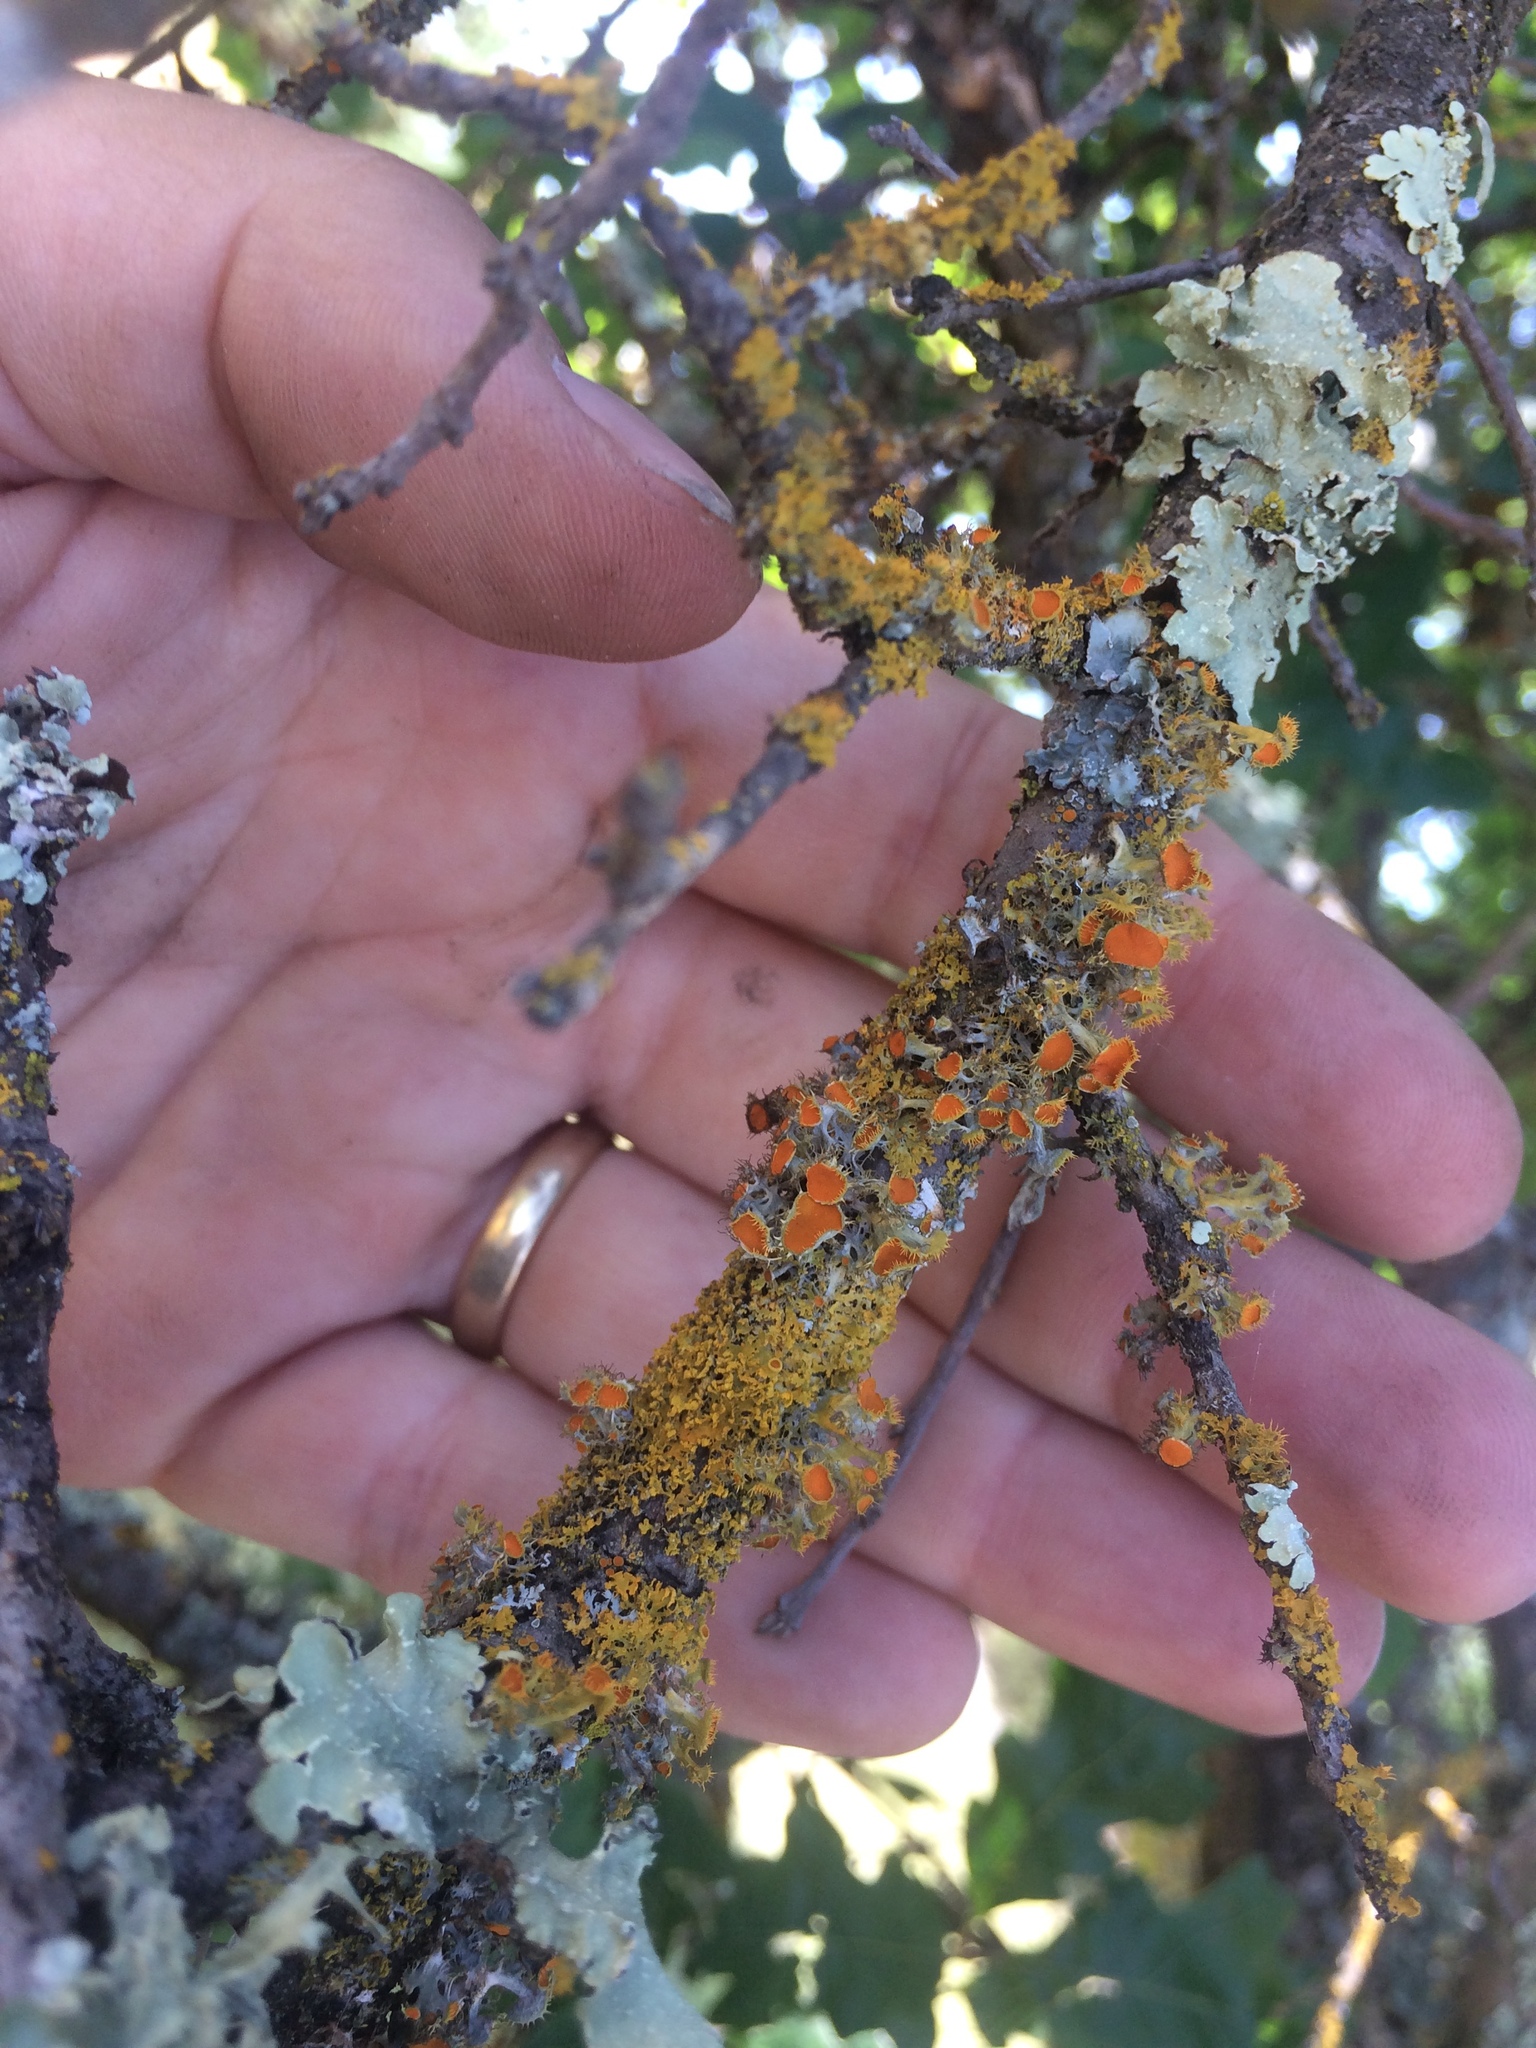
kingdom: Fungi
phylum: Ascomycota
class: Lecanoromycetes
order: Teloschistales
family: Teloschistaceae
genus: Niorma
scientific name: Niorma chrysophthalma
